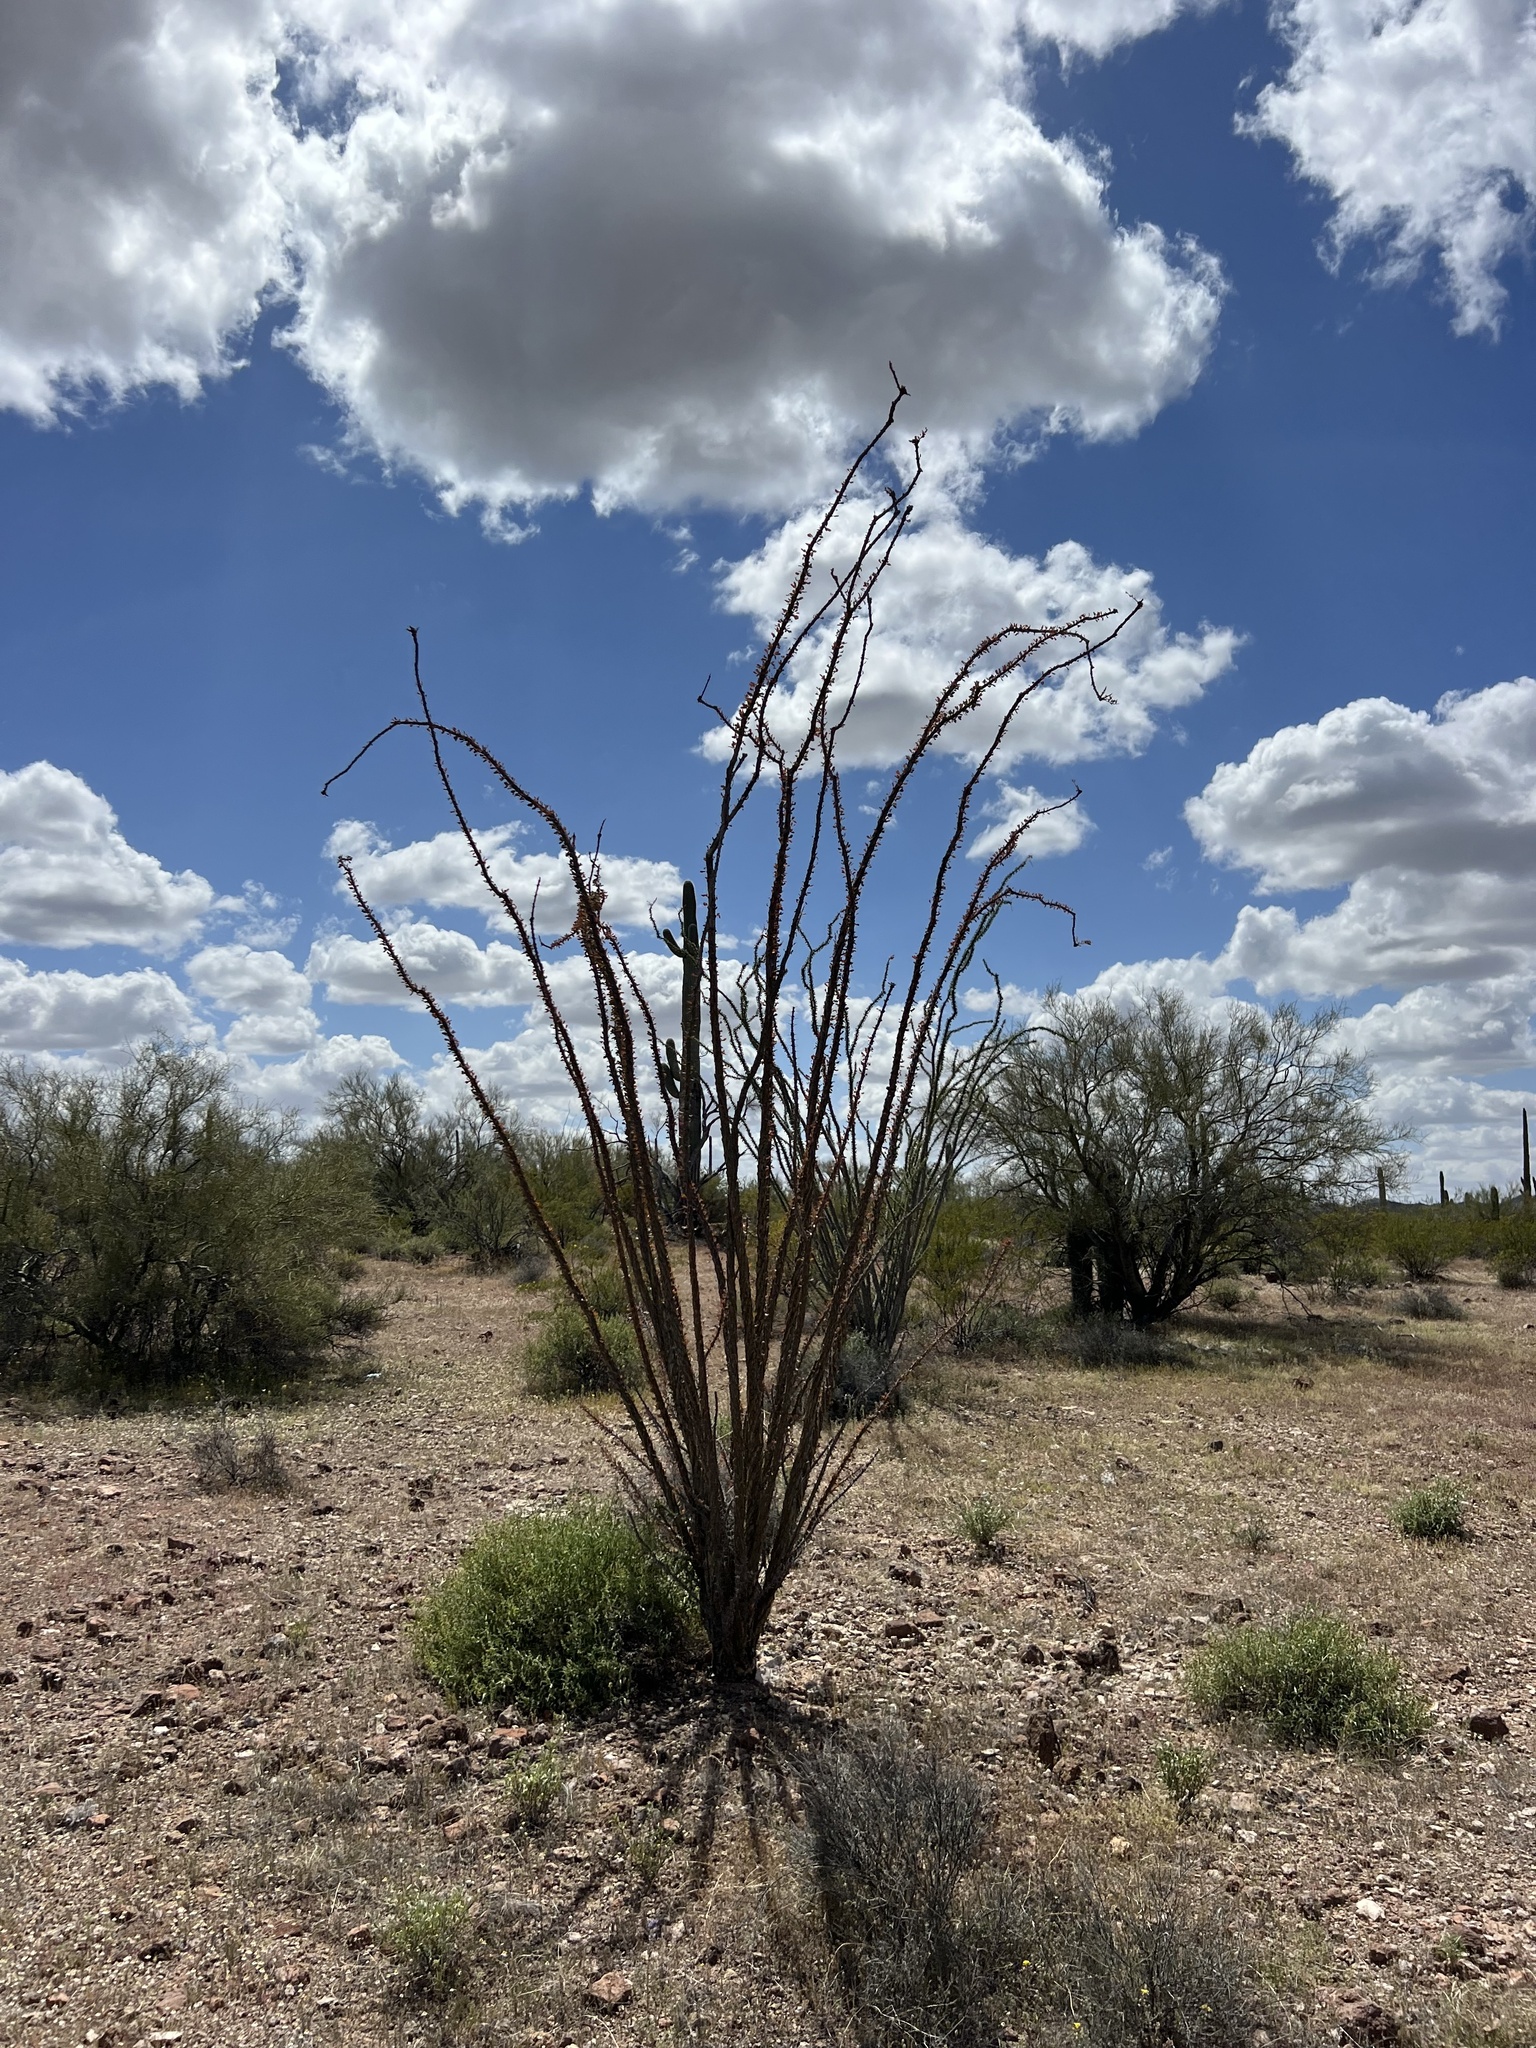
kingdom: Plantae
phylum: Tracheophyta
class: Magnoliopsida
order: Ericales
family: Fouquieriaceae
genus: Fouquieria
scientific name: Fouquieria splendens
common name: Vine-cactus
